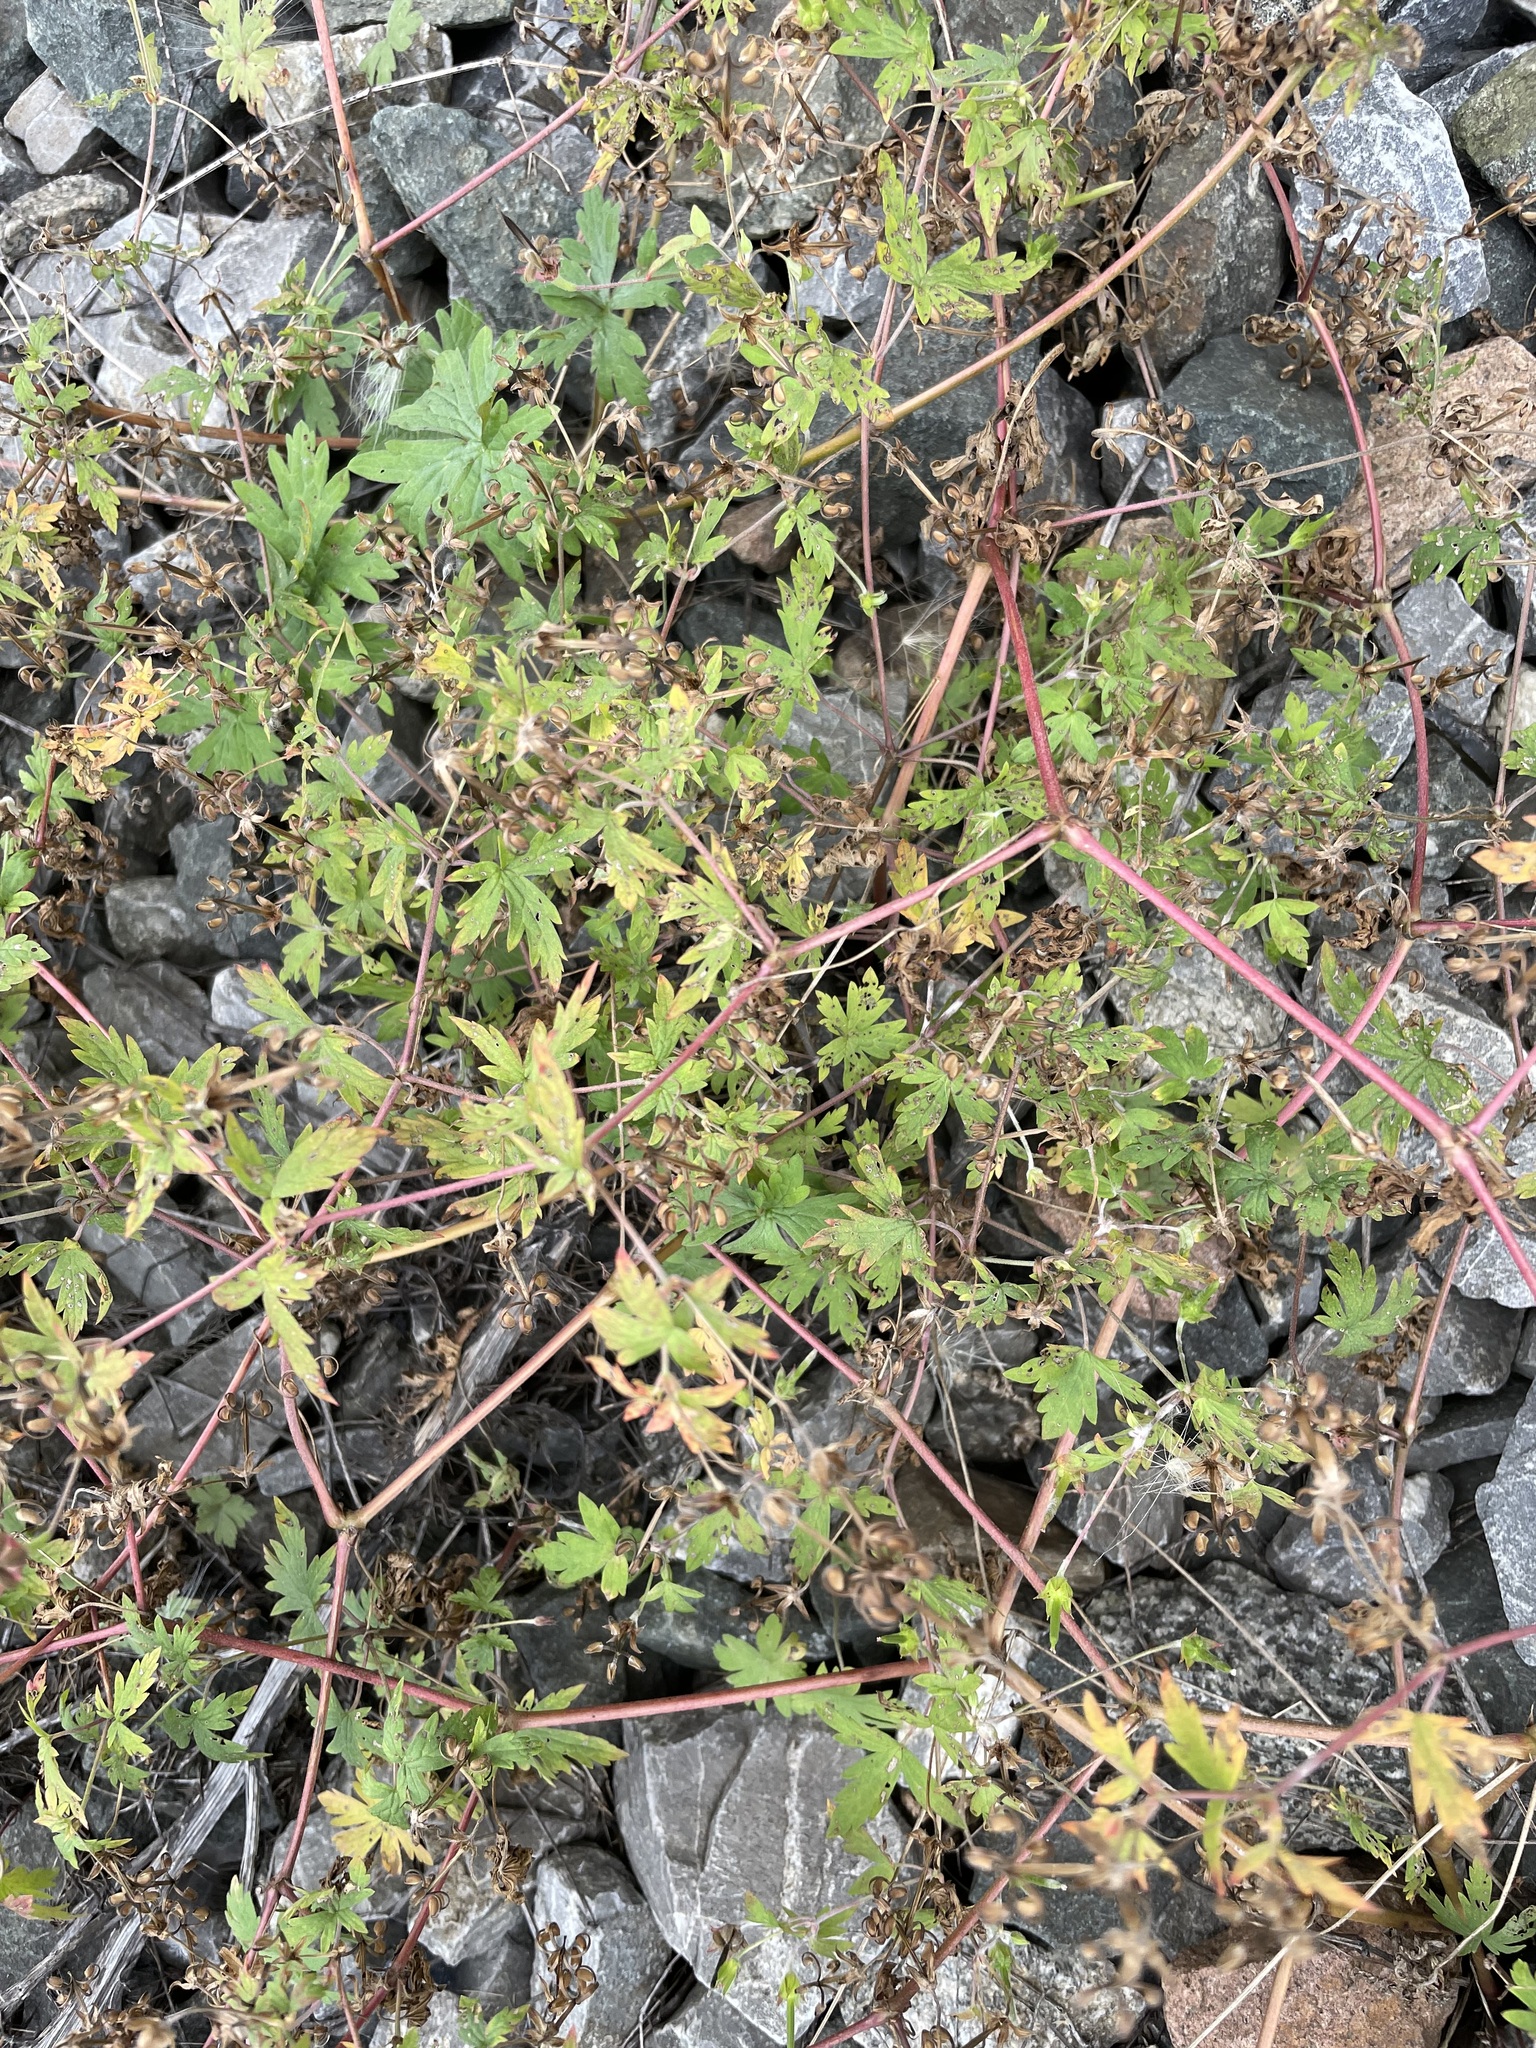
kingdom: Plantae
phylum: Tracheophyta
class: Magnoliopsida
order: Geraniales
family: Geraniaceae
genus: Geranium
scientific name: Geranium sibiricum
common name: Siberian crane's-bill
